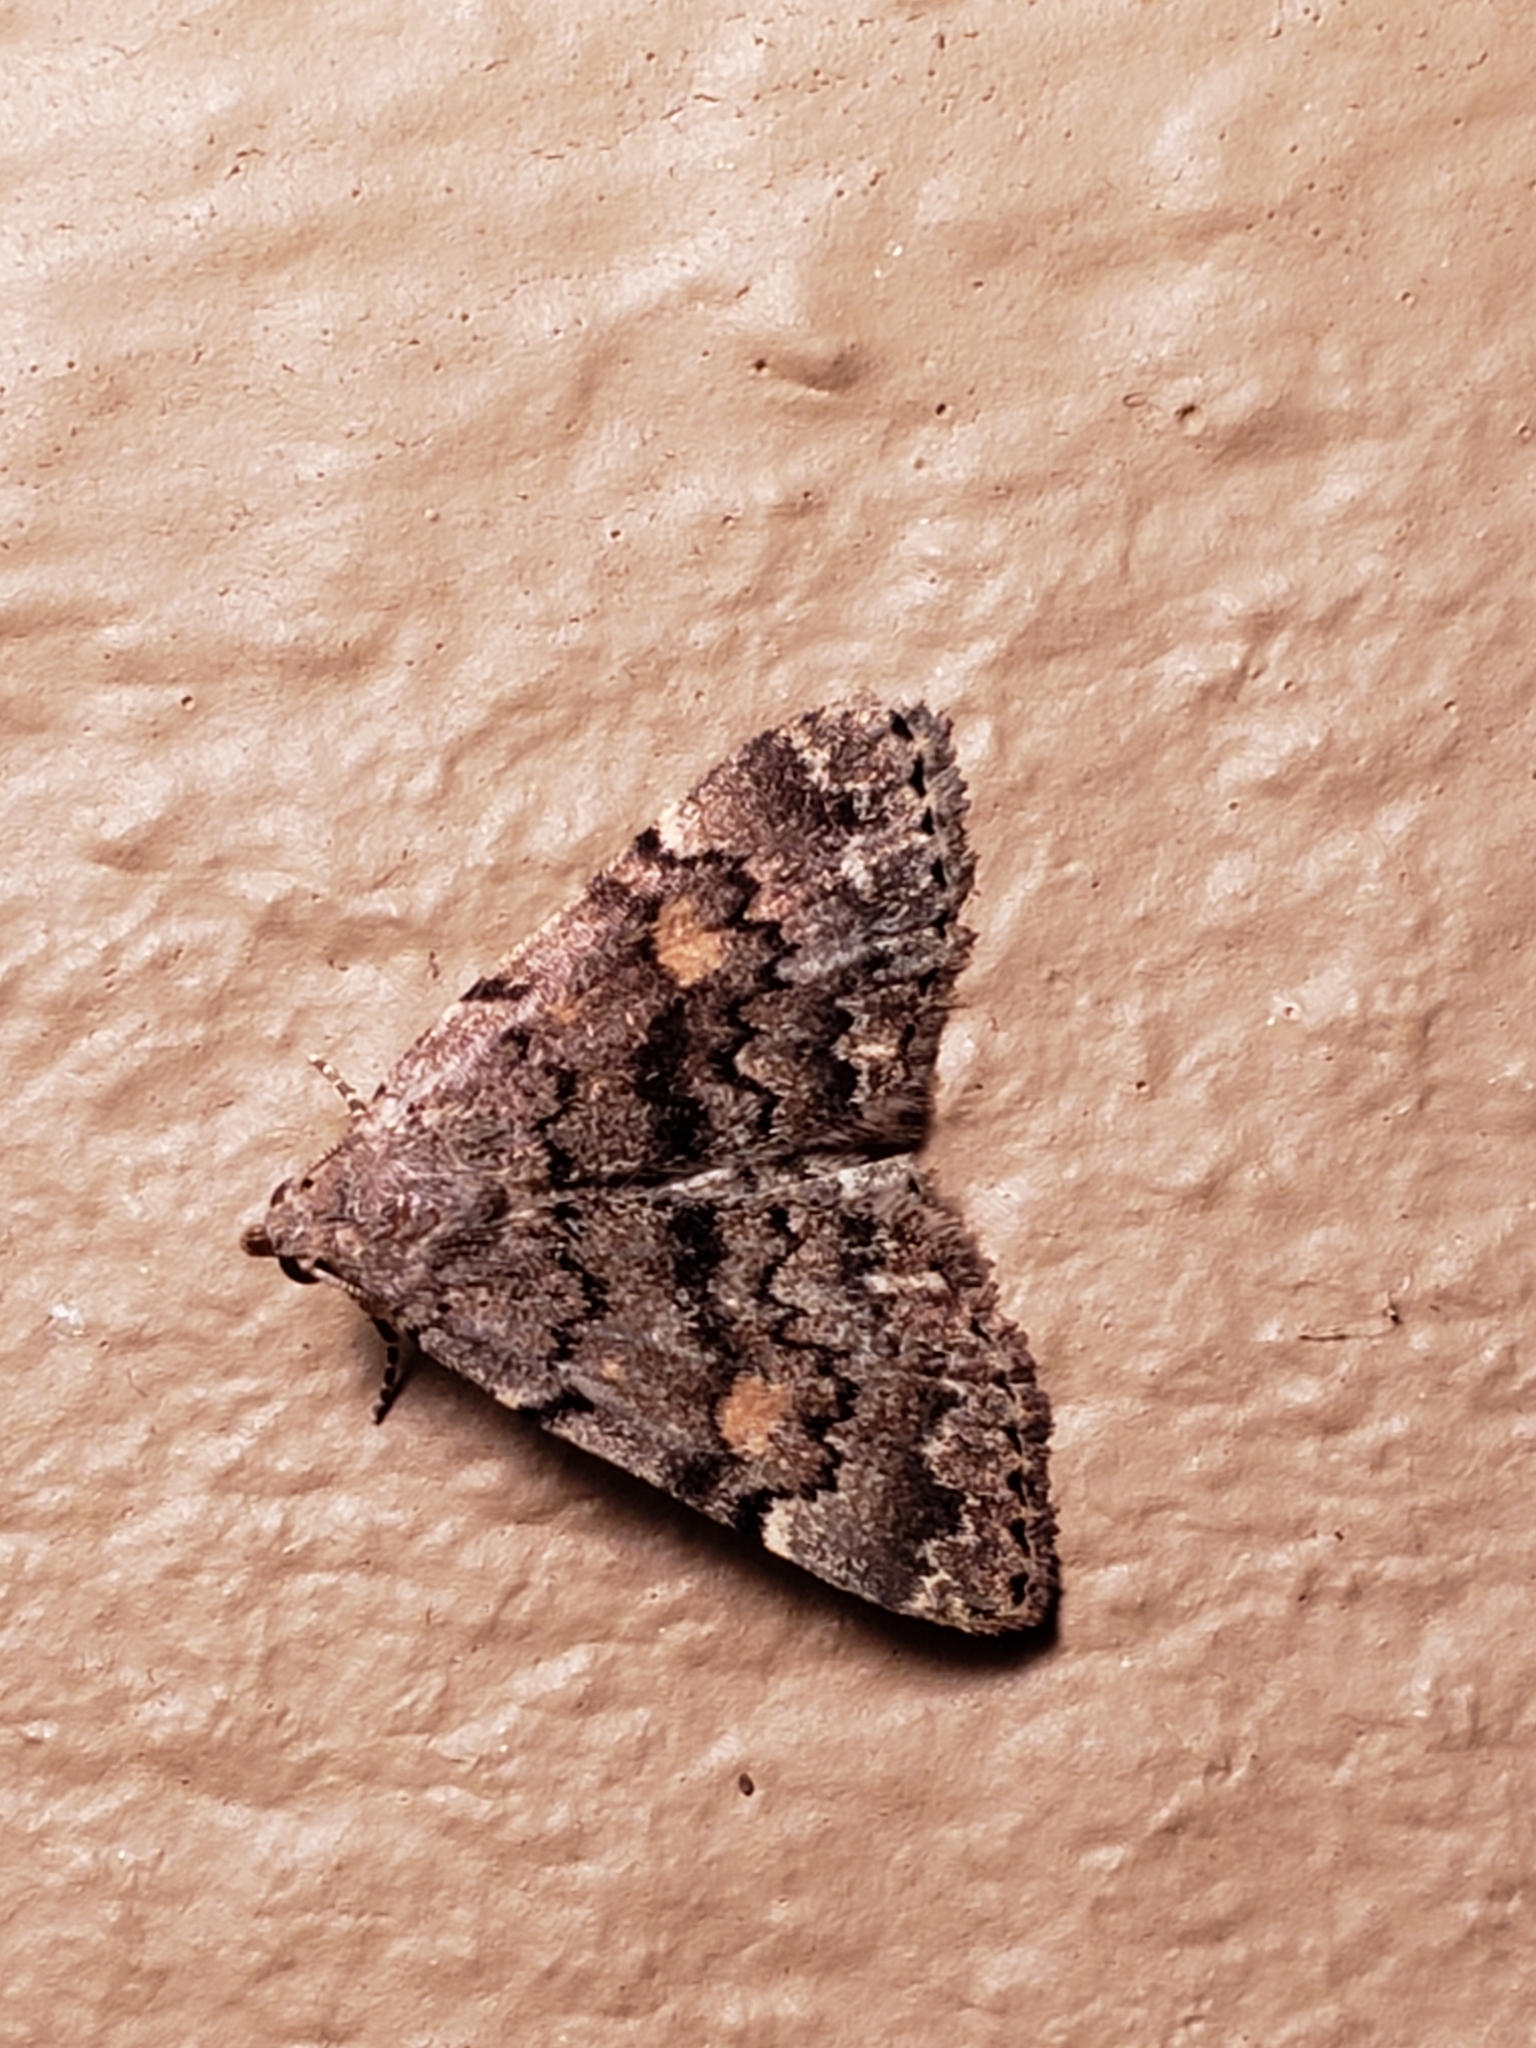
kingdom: Animalia
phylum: Arthropoda
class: Insecta
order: Lepidoptera
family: Erebidae
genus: Idia
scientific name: Idia aemula
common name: Common idia moth
